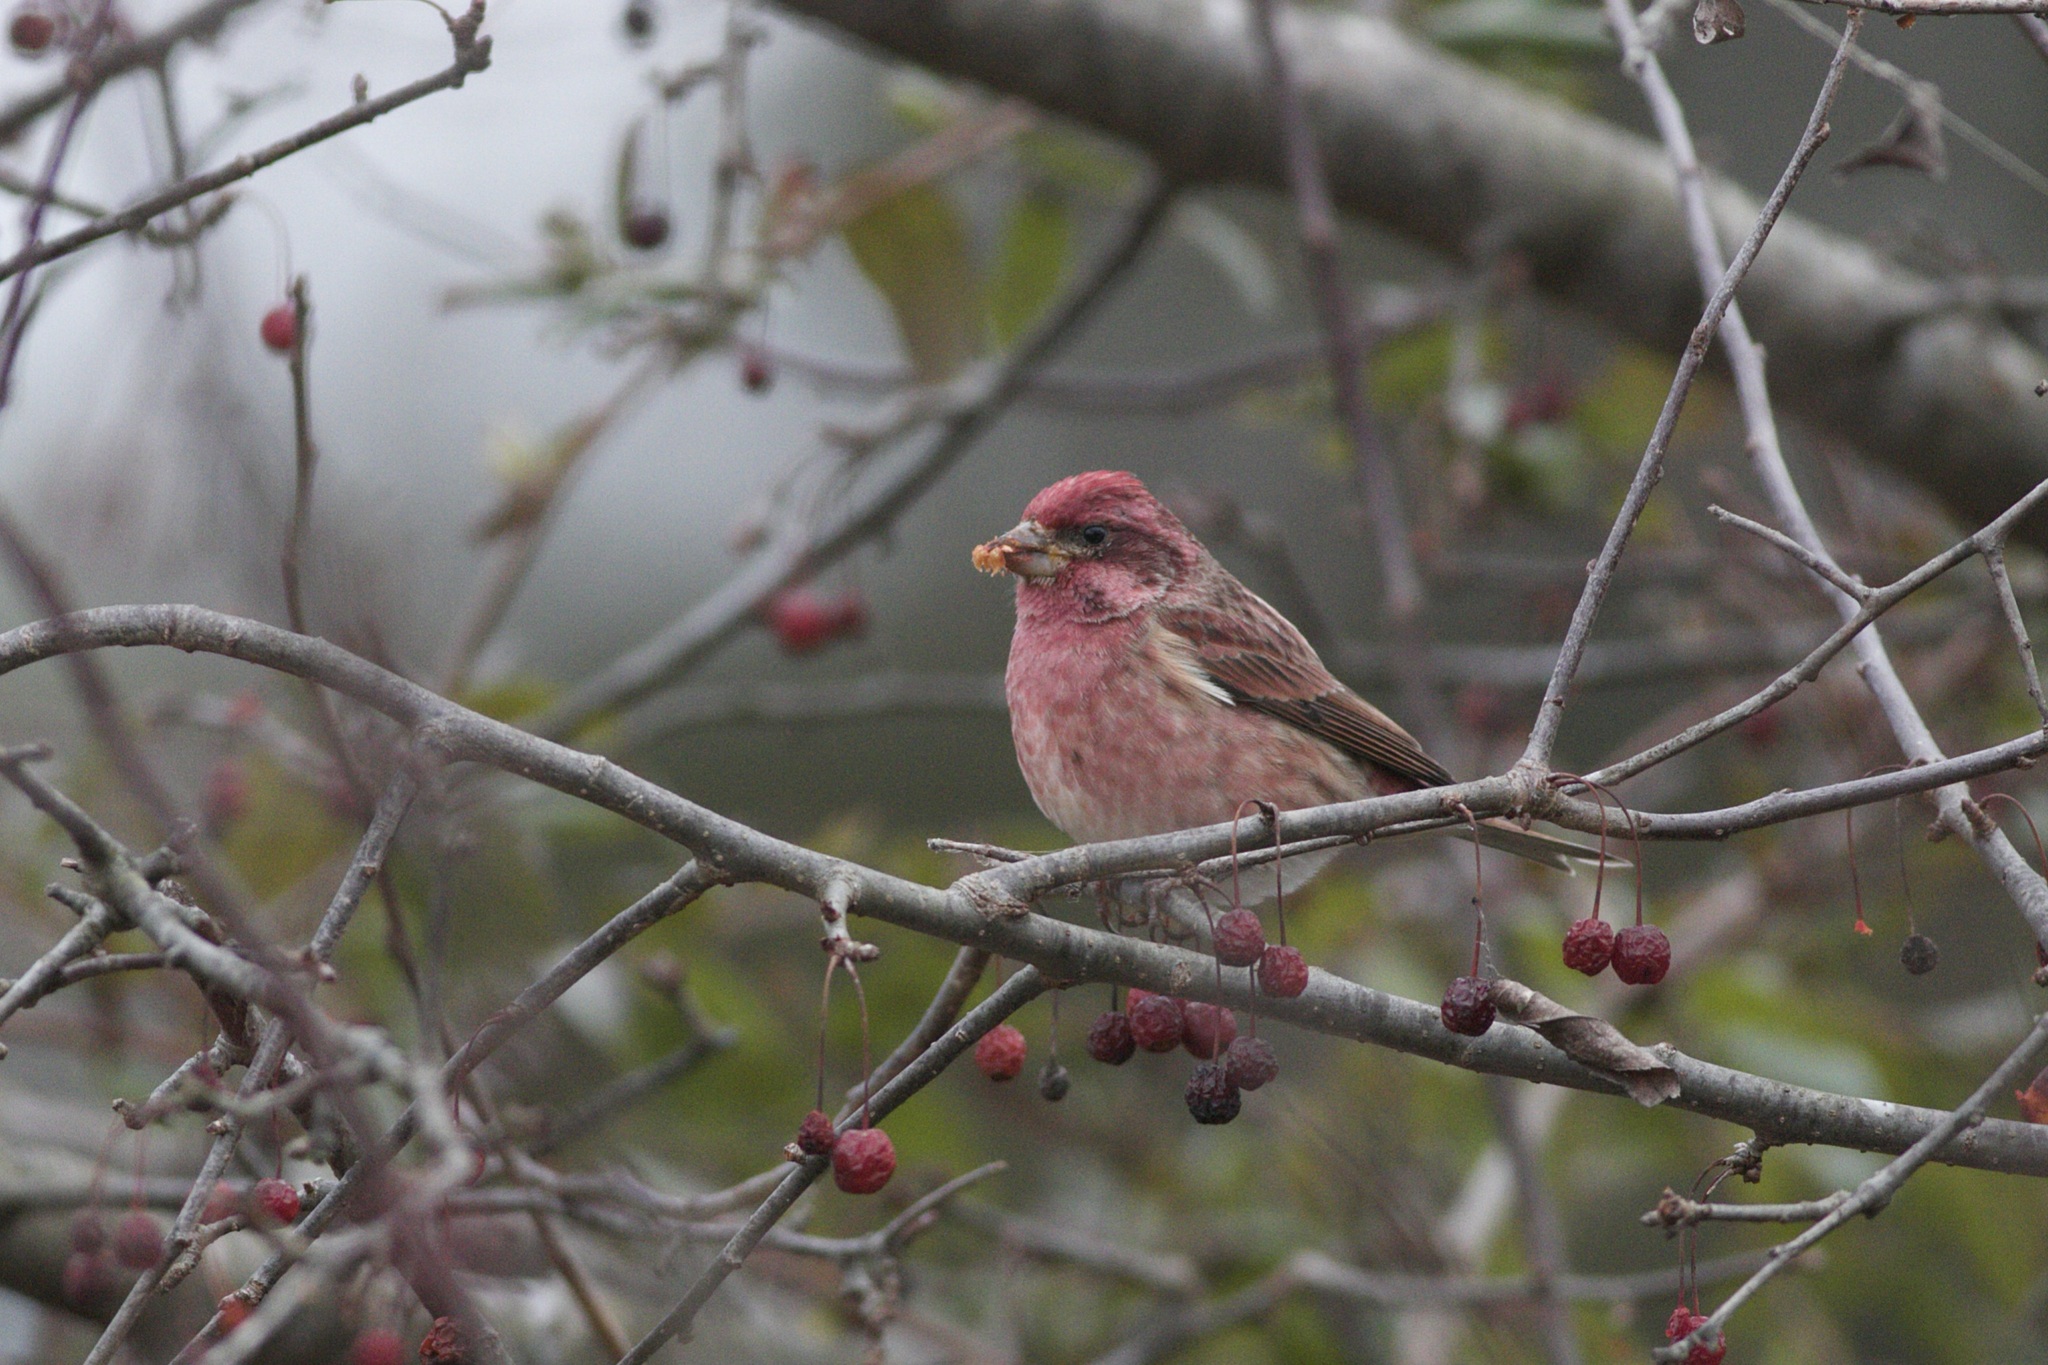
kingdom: Animalia
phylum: Chordata
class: Aves
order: Passeriformes
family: Fringillidae
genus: Haemorhous
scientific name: Haemorhous purpureus
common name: Purple finch
